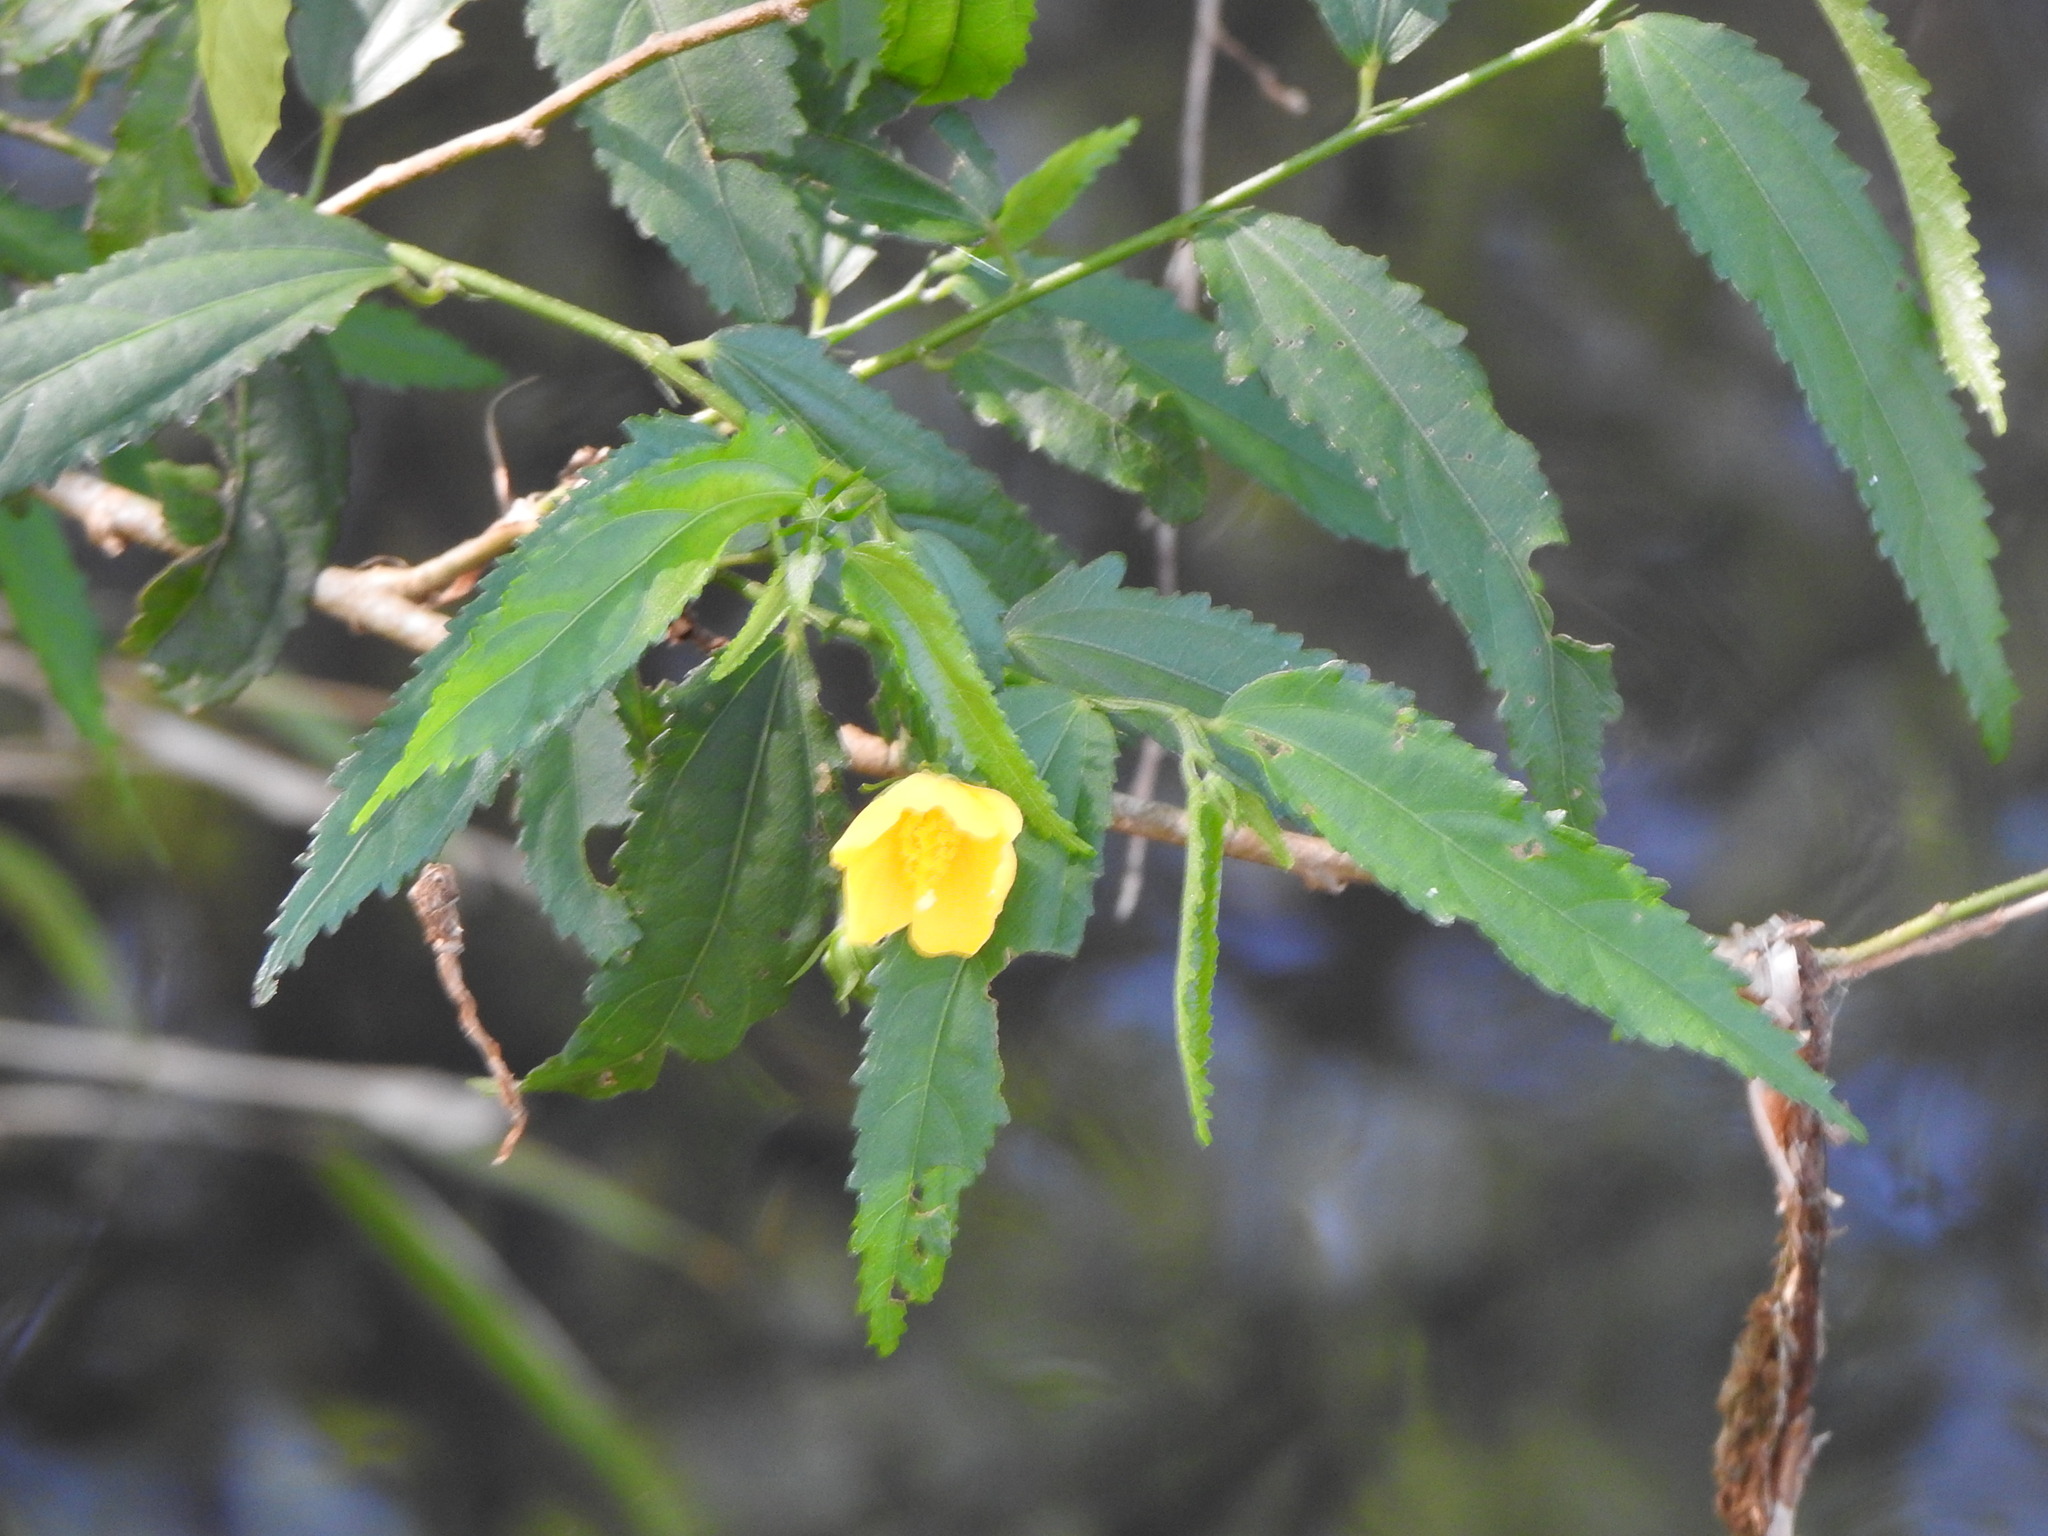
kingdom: Plantae
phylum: Tracheophyta
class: Magnoliopsida
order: Malvales
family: Malvaceae
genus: Pavonia
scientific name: Pavonia sepium
